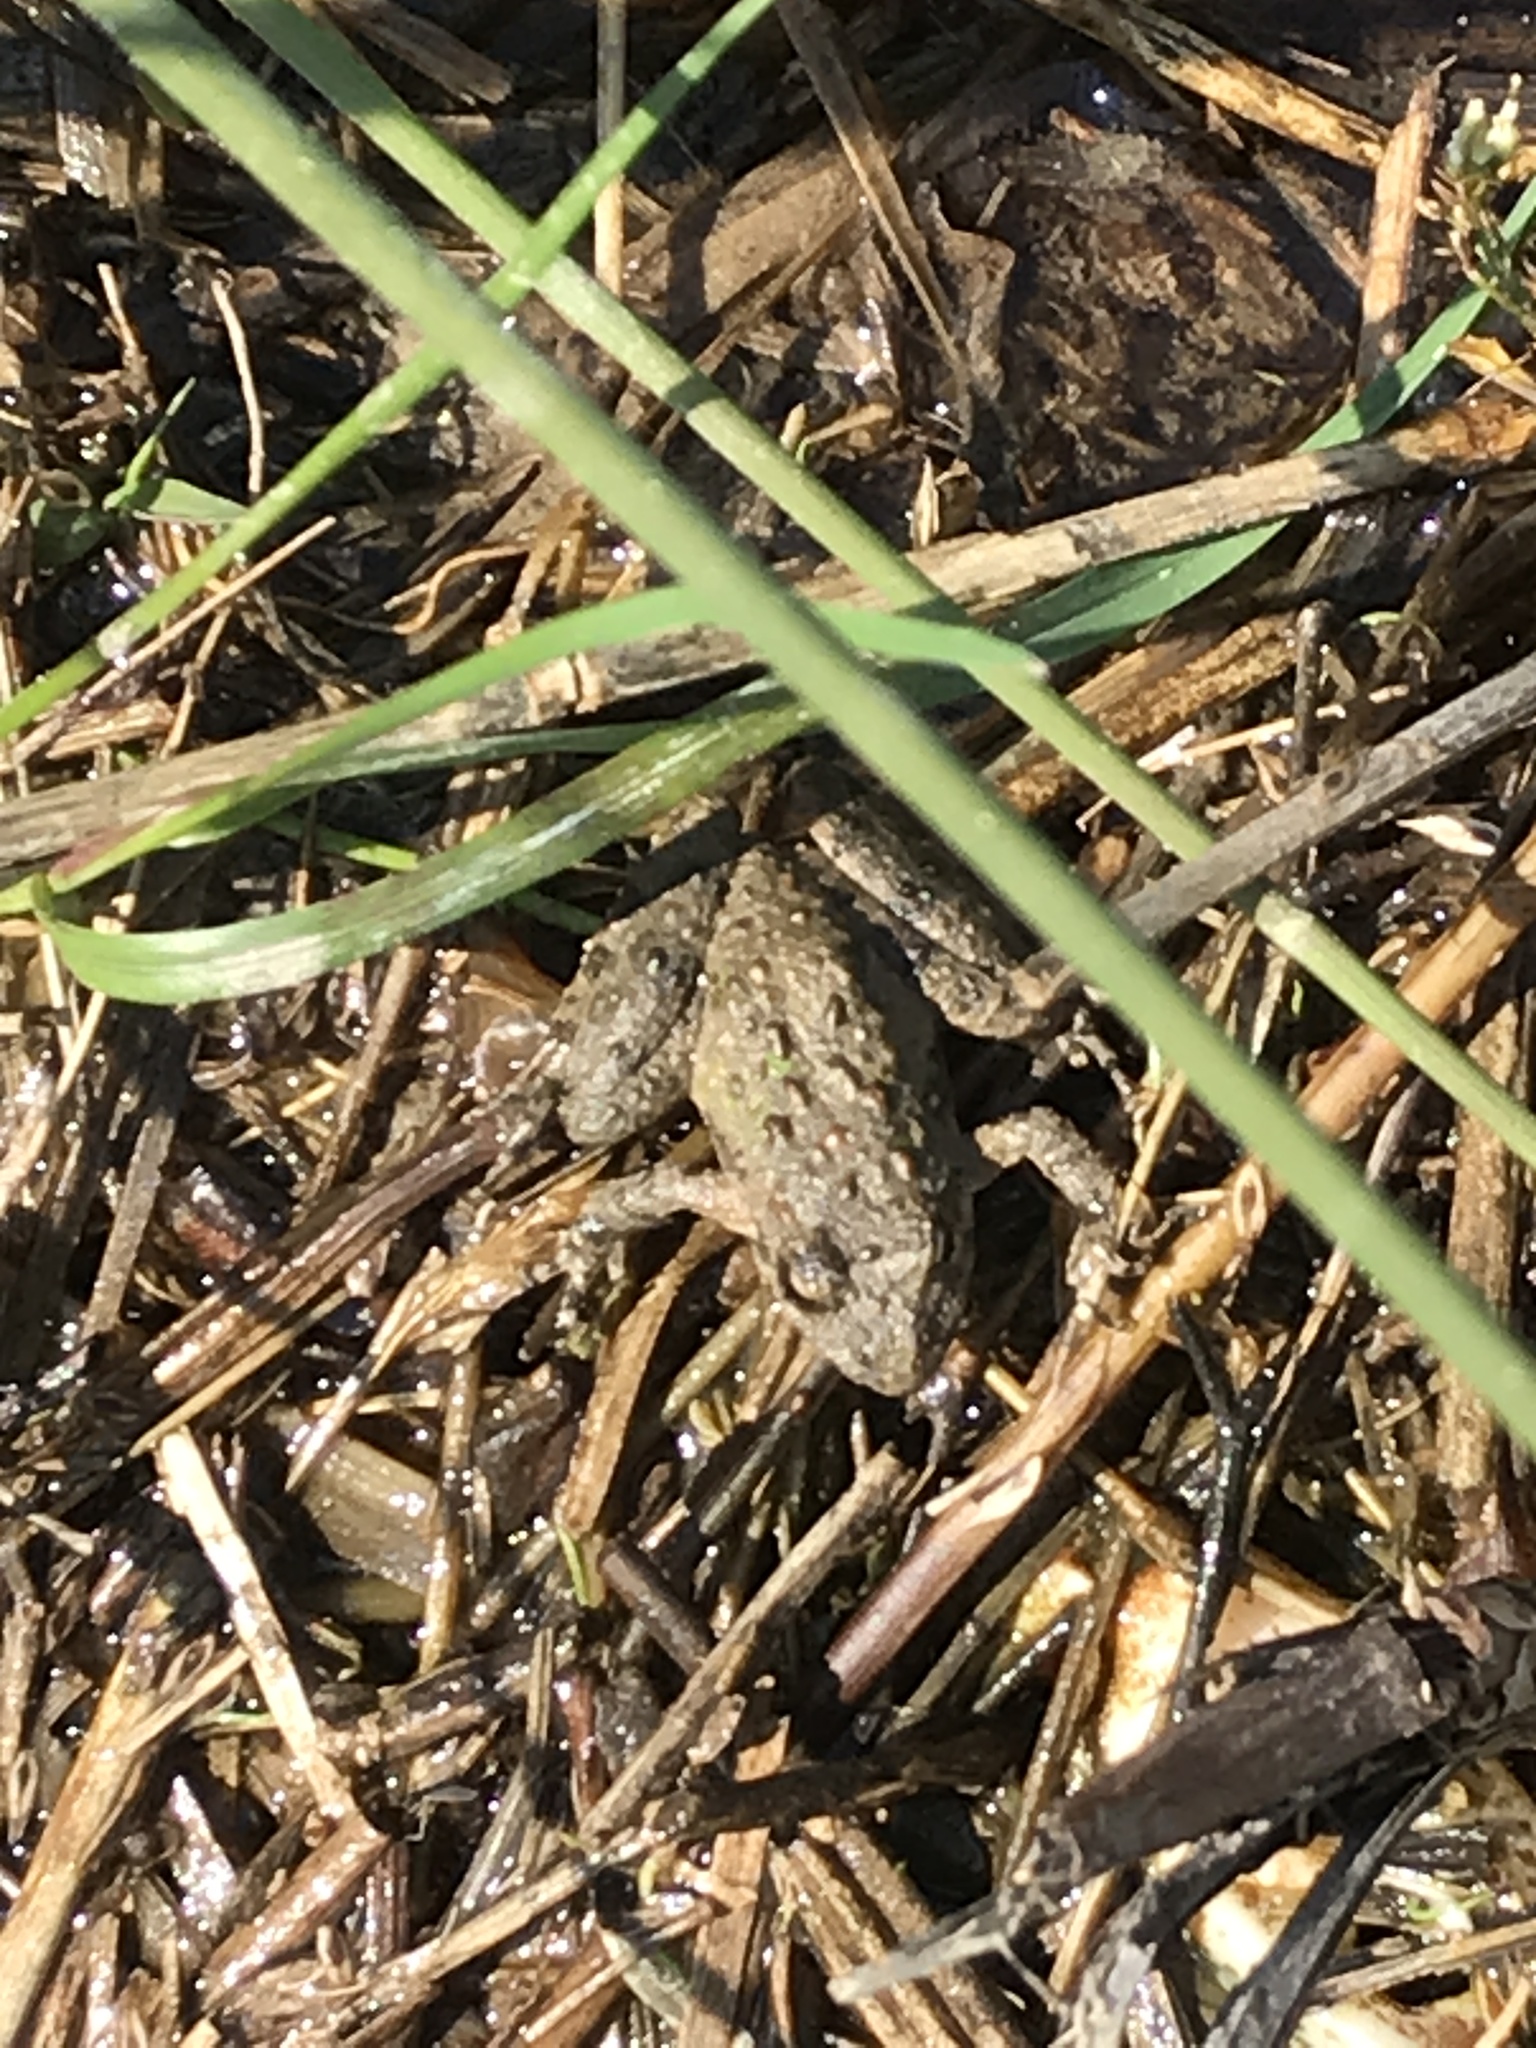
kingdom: Animalia
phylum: Chordata
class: Amphibia
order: Anura
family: Hylidae
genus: Acris
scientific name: Acris blanchardi
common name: Blanchard's cricket frog
